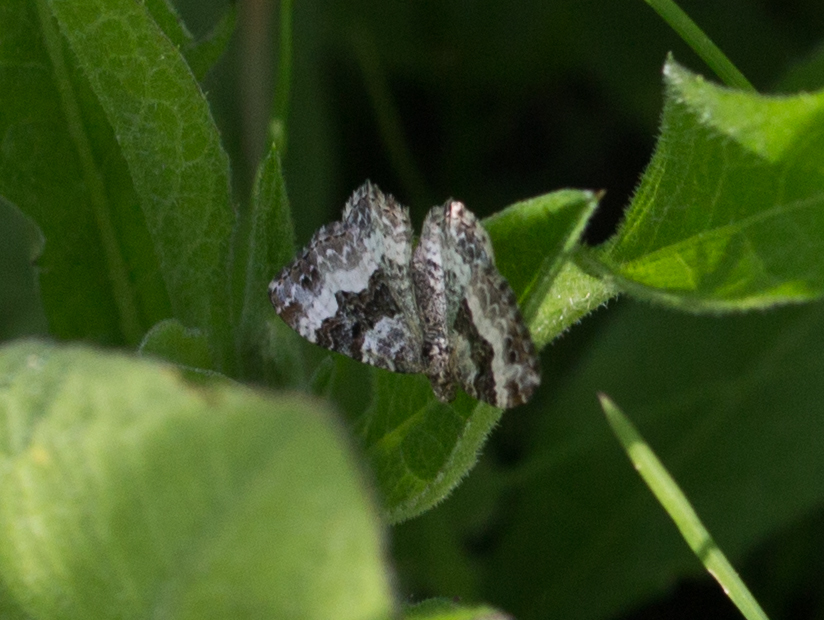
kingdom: Animalia
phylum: Arthropoda
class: Insecta
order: Lepidoptera
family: Geometridae
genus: Epirrhoe
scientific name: Epirrhoe alternata
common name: Common carpet
